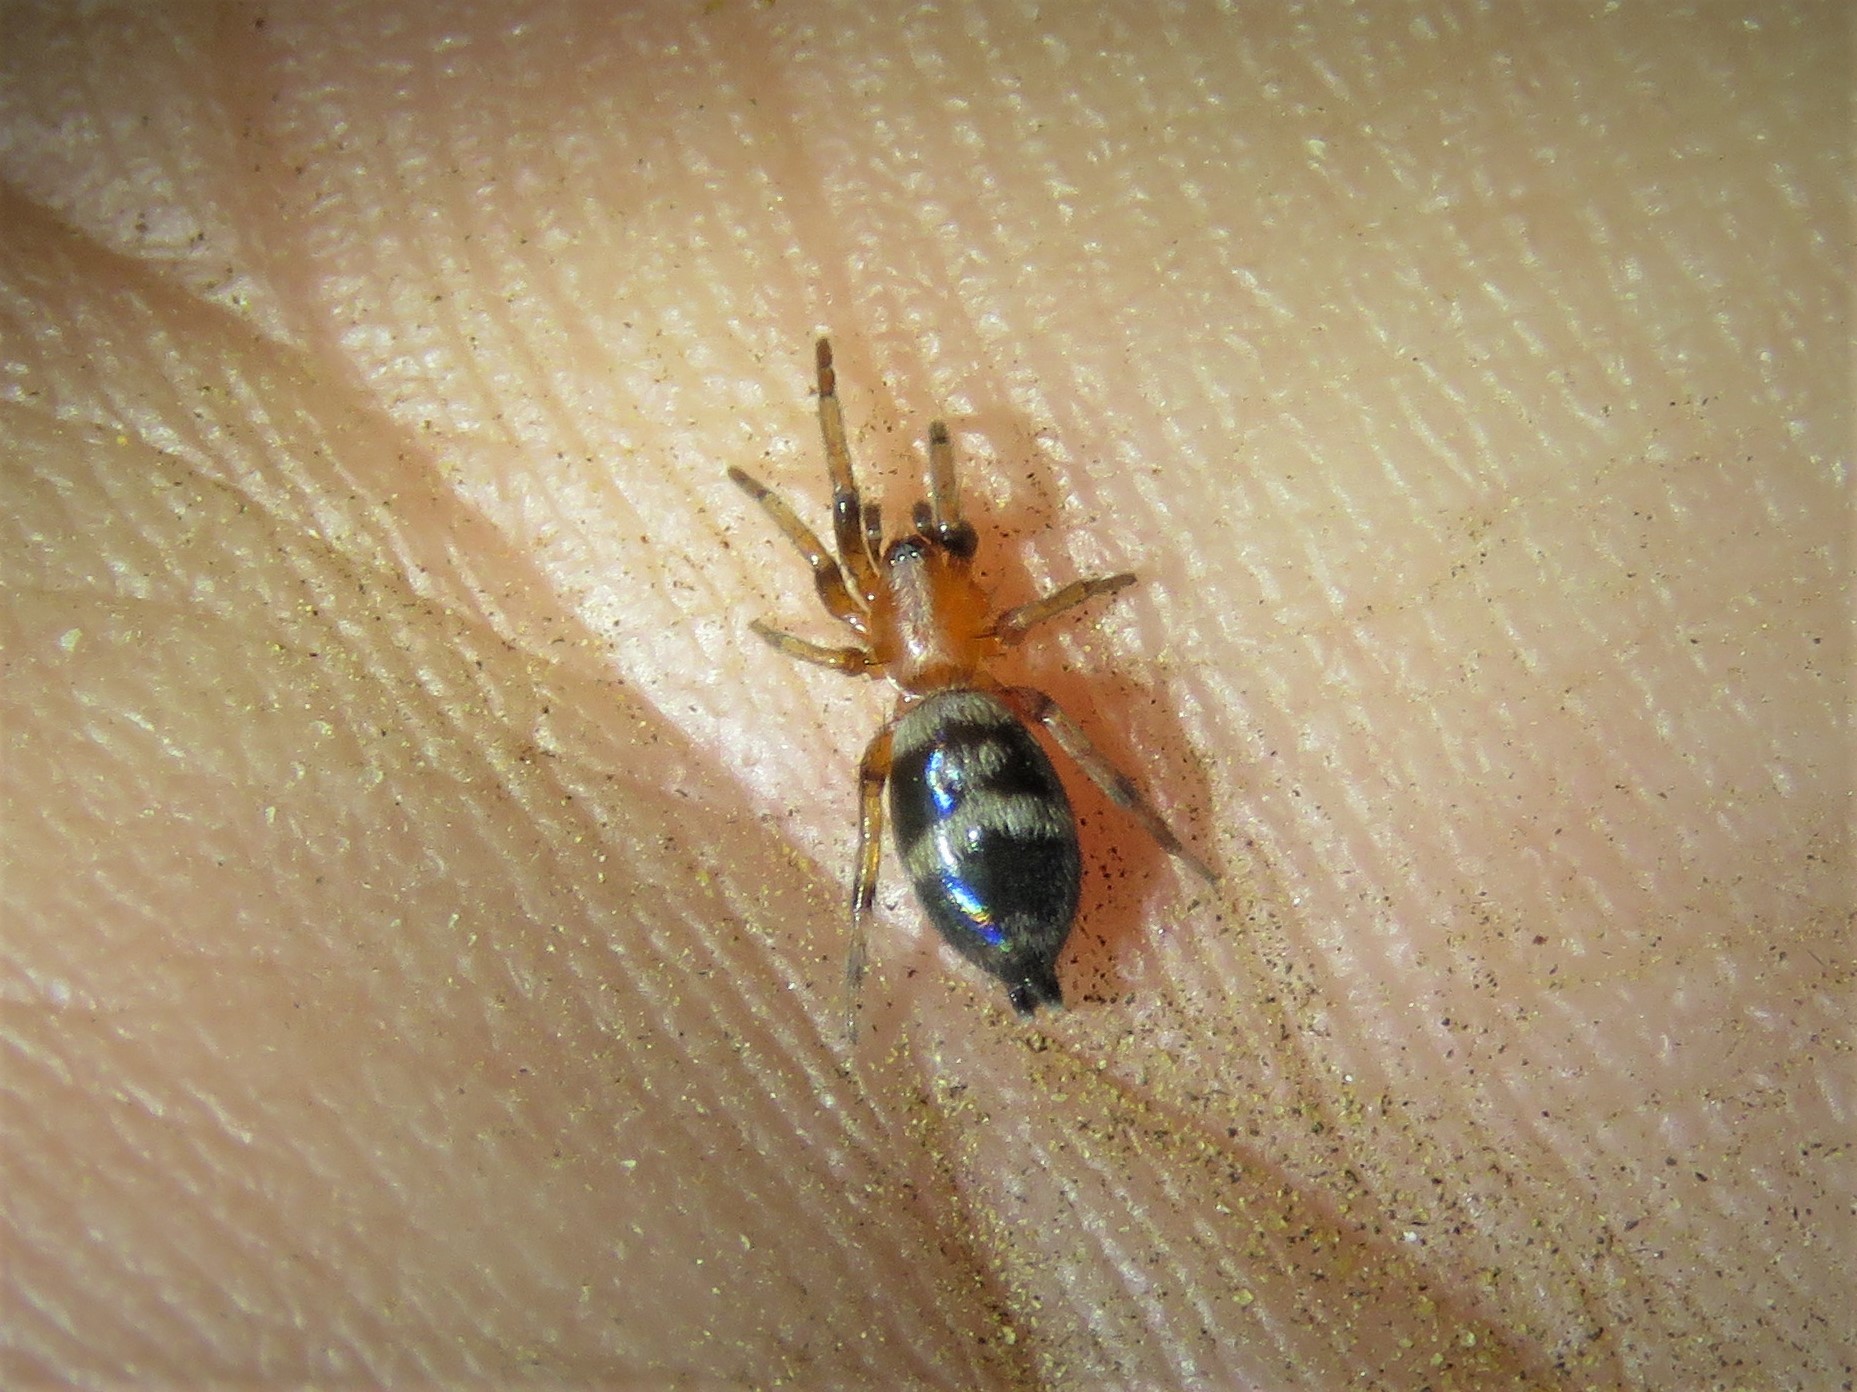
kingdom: Animalia
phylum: Arthropoda
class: Arachnida
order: Araneae
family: Gnaphosidae
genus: Sergiolus
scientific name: Sergiolus capulatus
